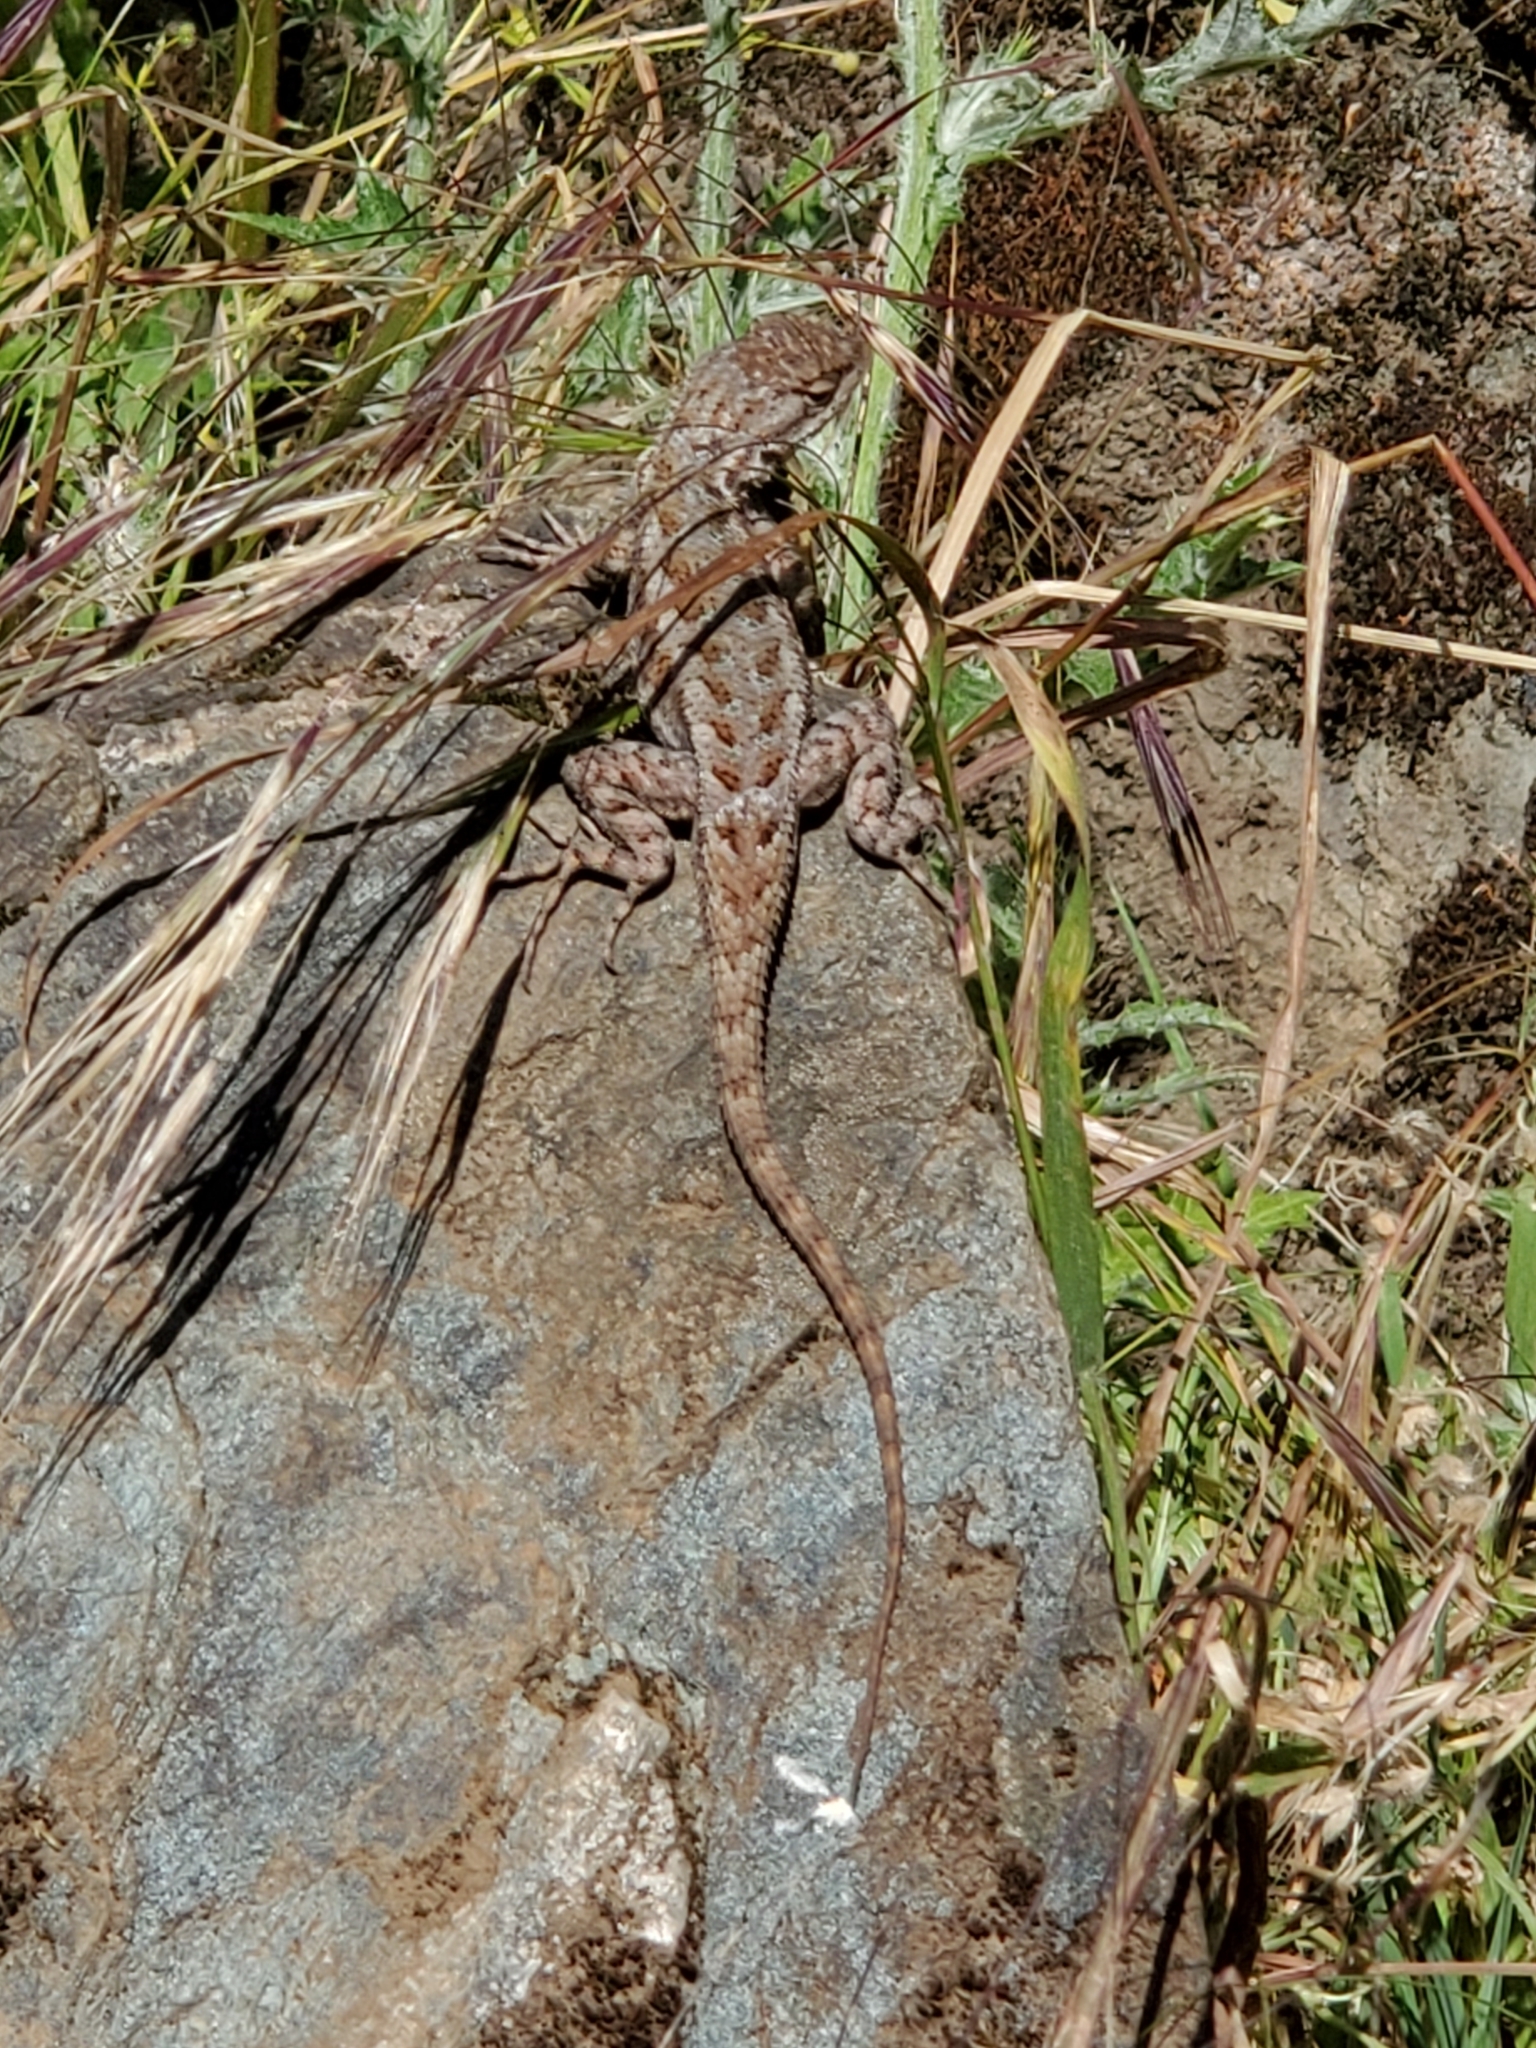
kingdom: Animalia
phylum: Chordata
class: Squamata
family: Phrynosomatidae
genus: Sceloporus
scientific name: Sceloporus occidentalis
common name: Western fence lizard
